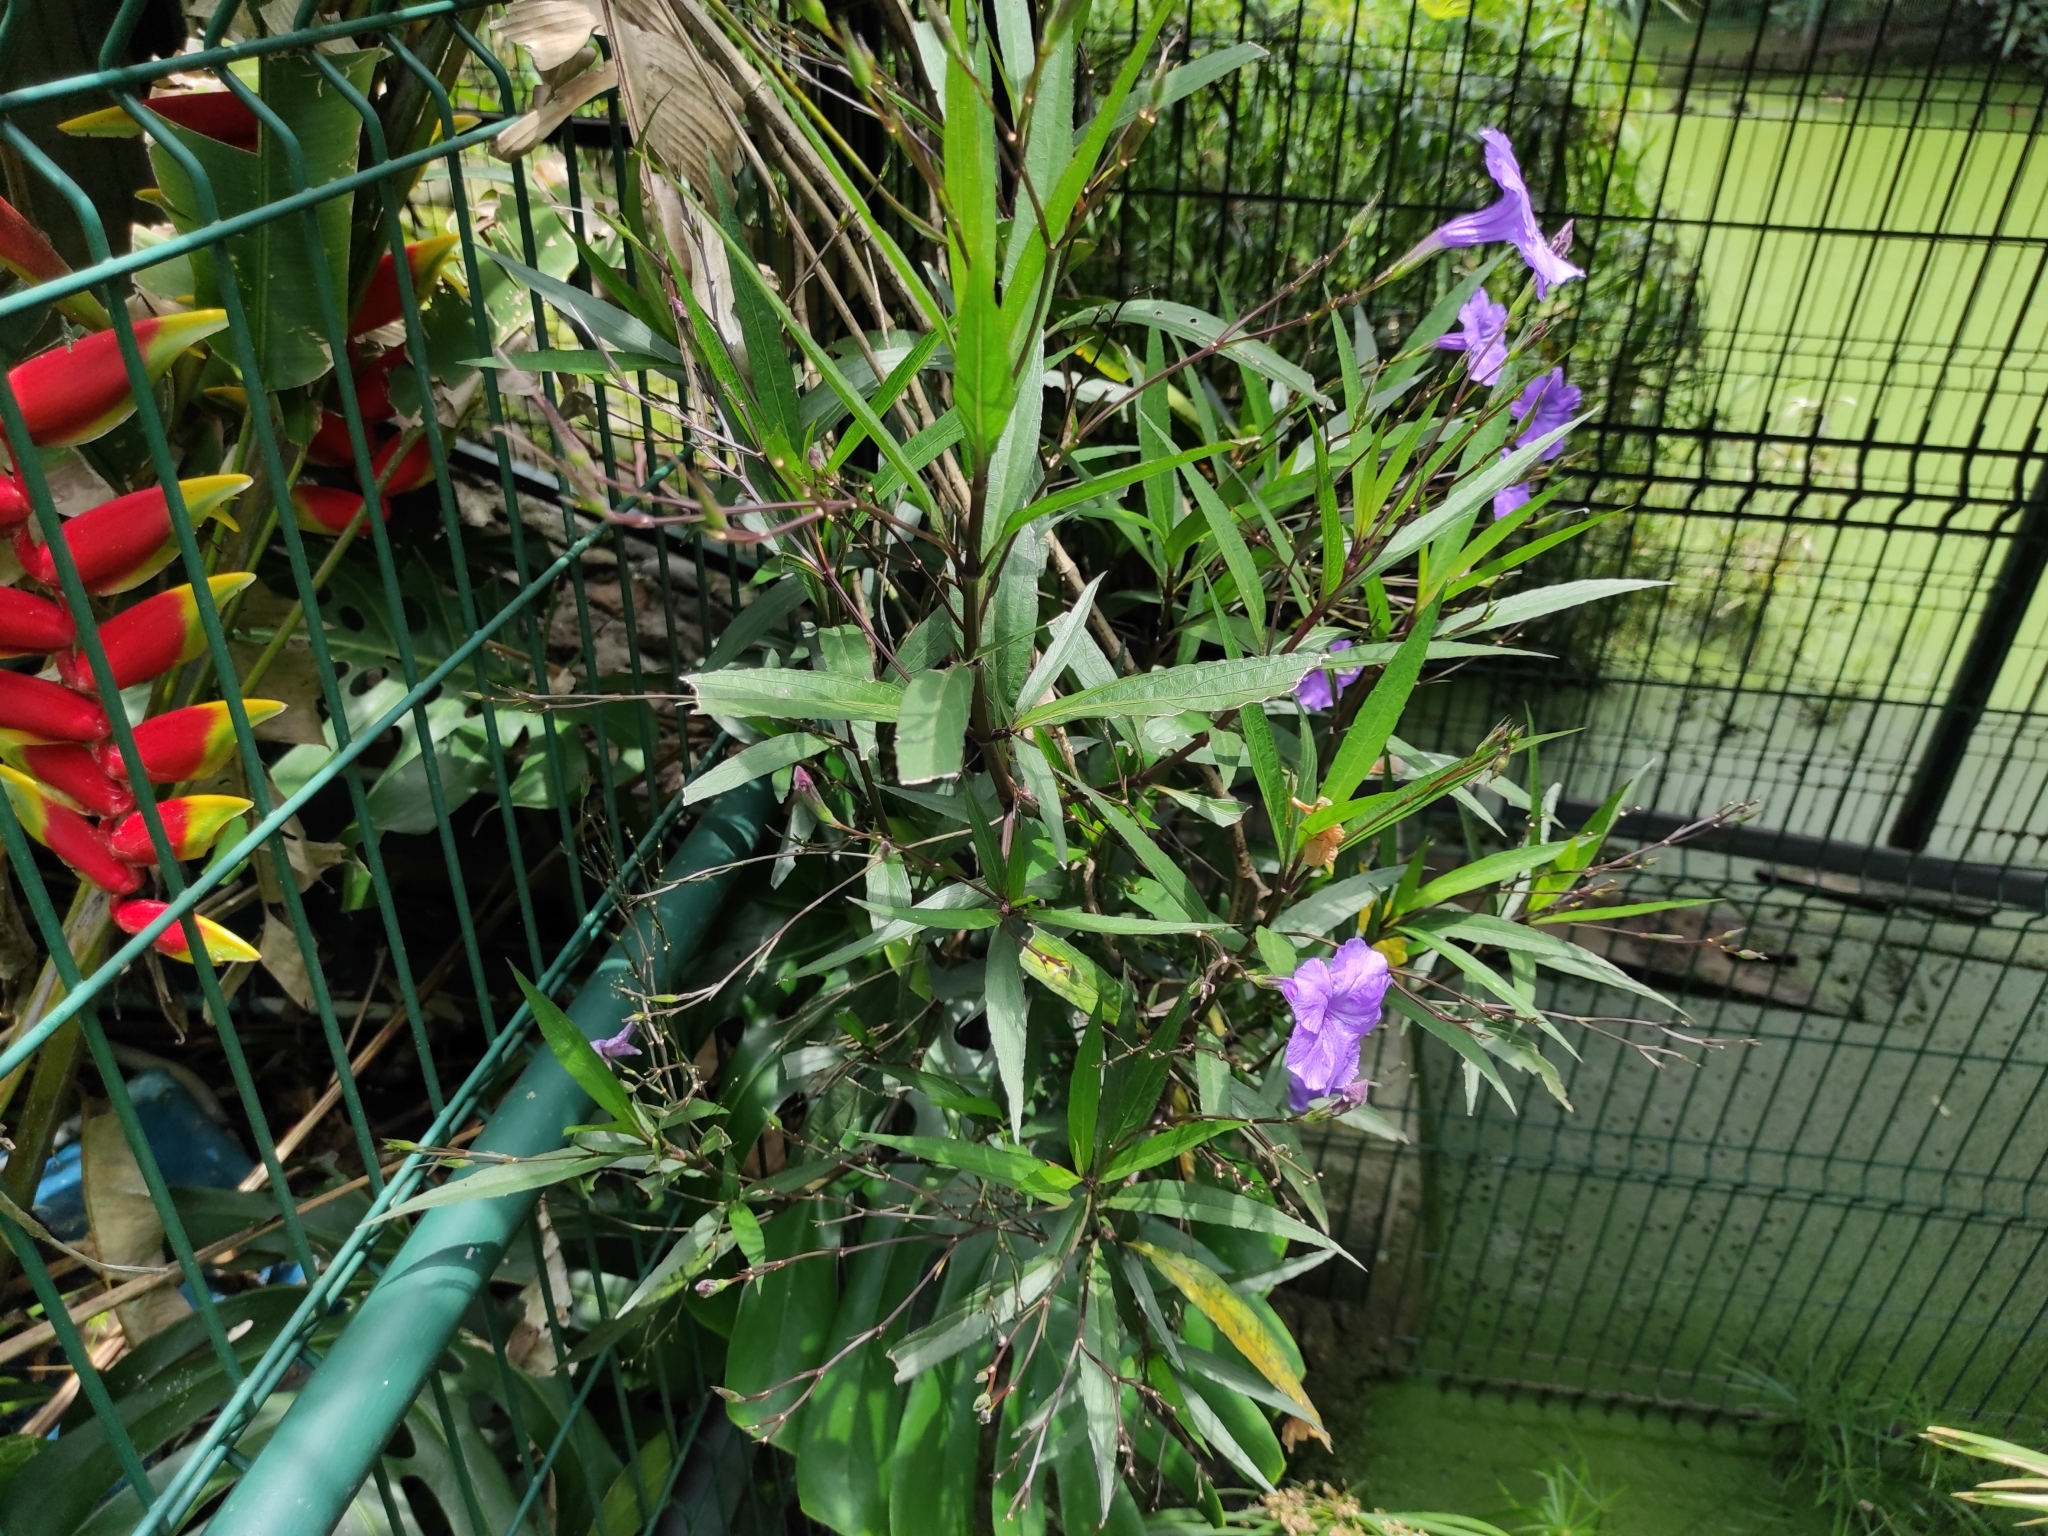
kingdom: Plantae
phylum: Tracheophyta
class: Magnoliopsida
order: Lamiales
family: Acanthaceae
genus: Ruellia
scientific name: Ruellia simplex
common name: Softseed wild petunia
